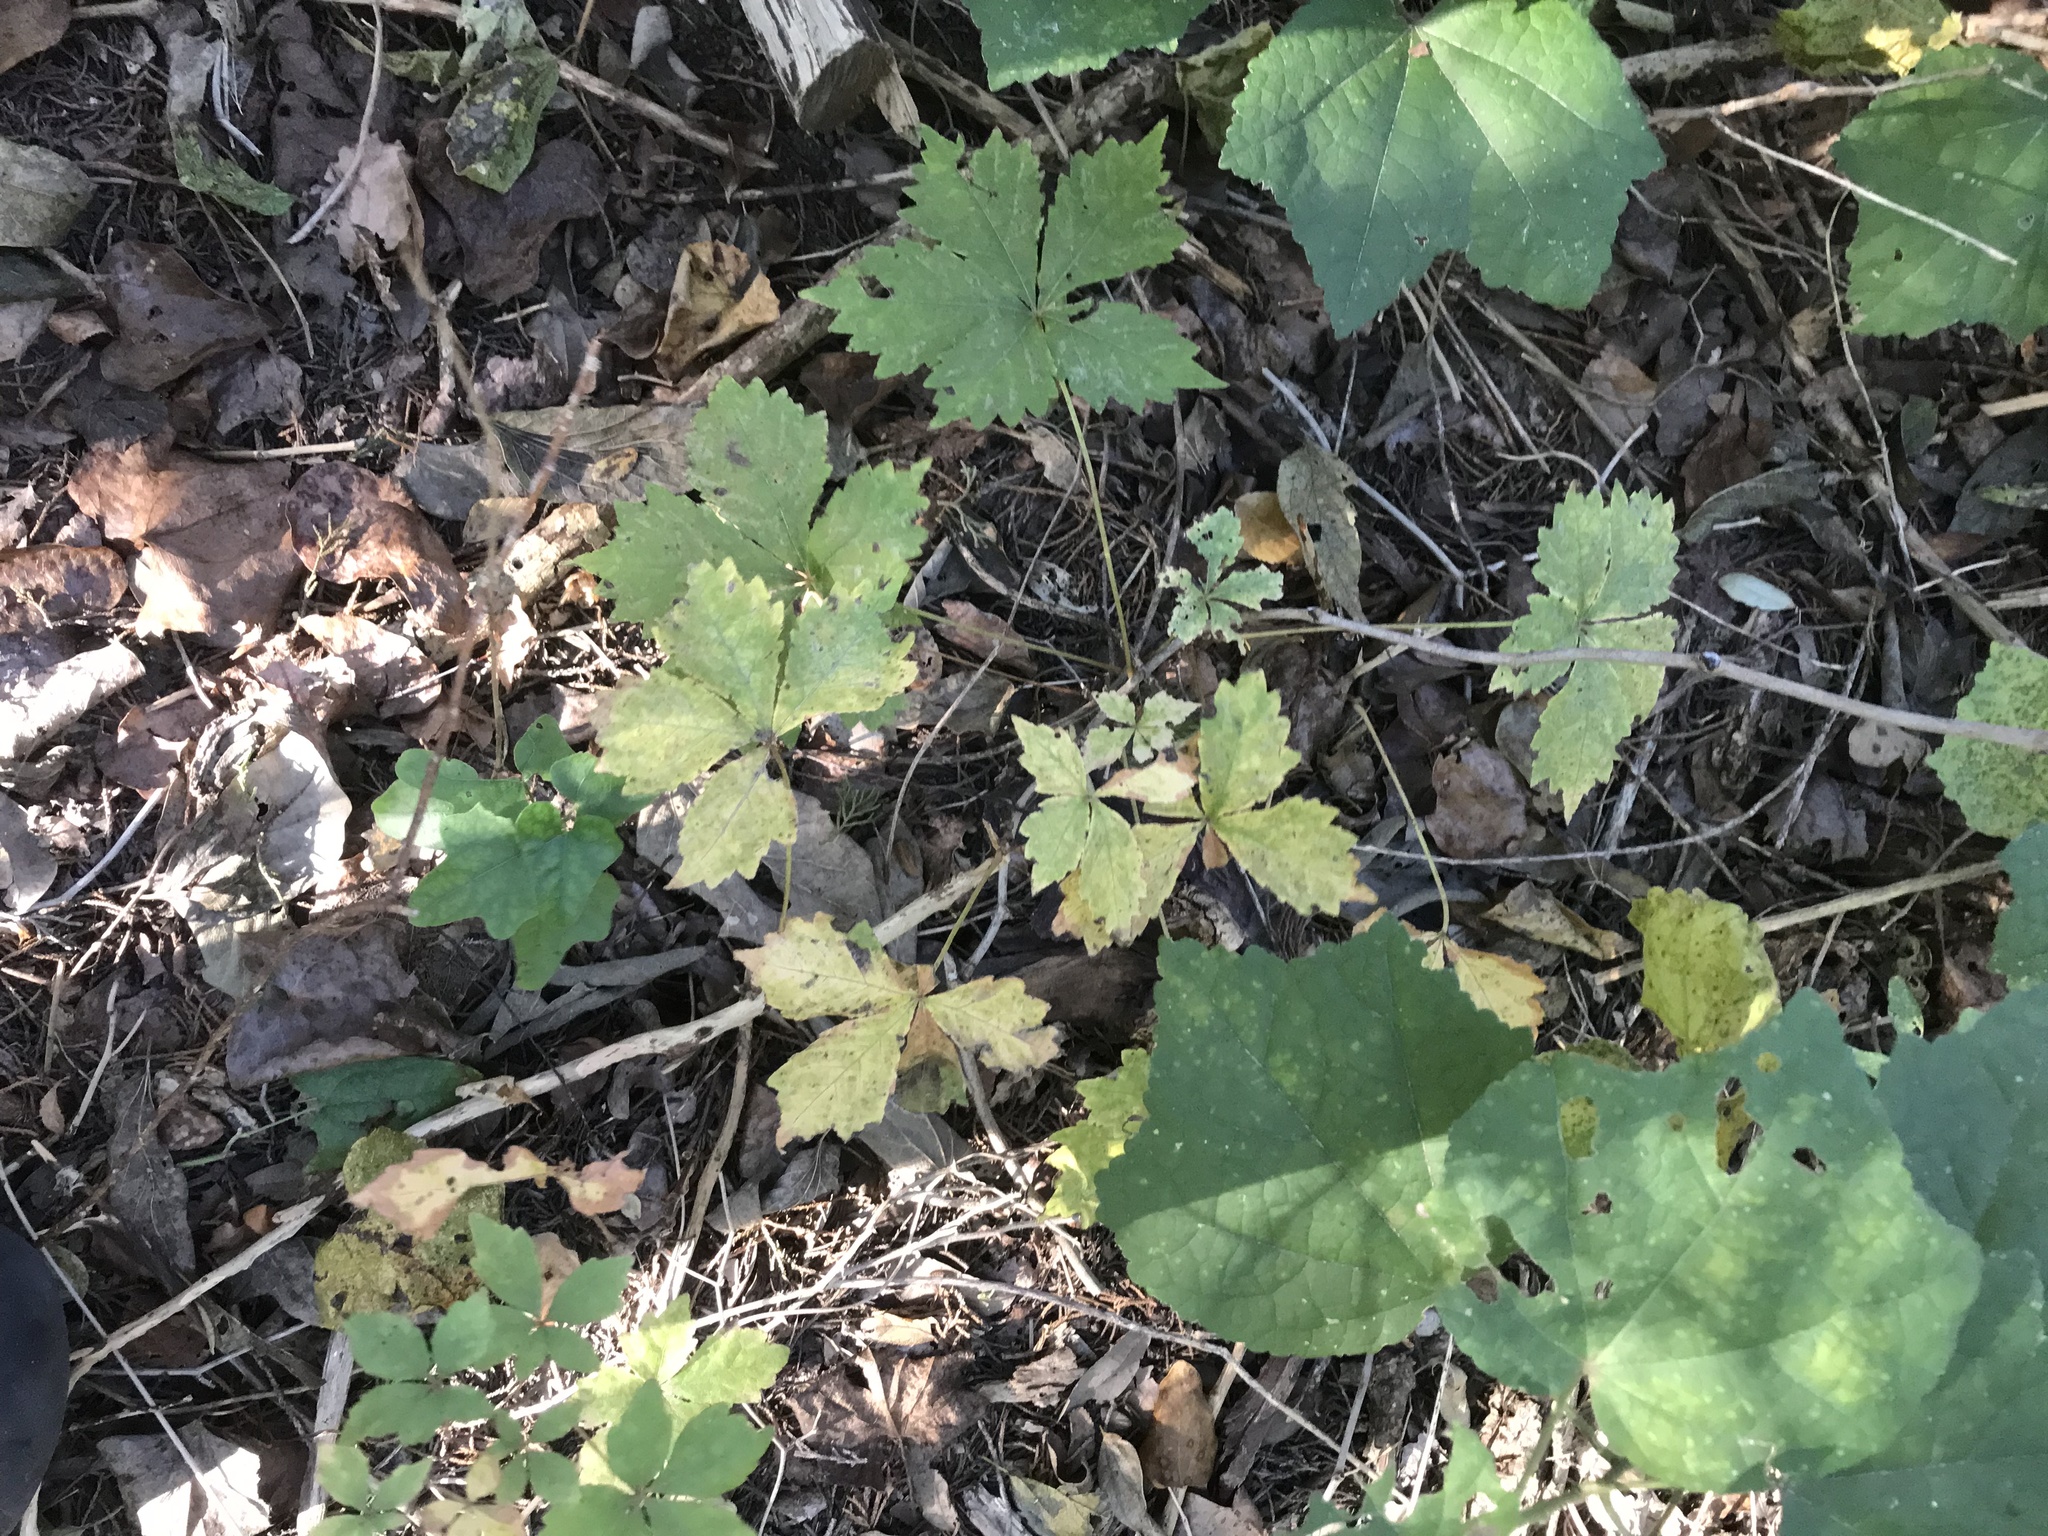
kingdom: Plantae
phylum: Tracheophyta
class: Magnoliopsida
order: Vitales
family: Vitaceae
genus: Parthenocissus
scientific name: Parthenocissus quinquefolia
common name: Virginia-creeper
